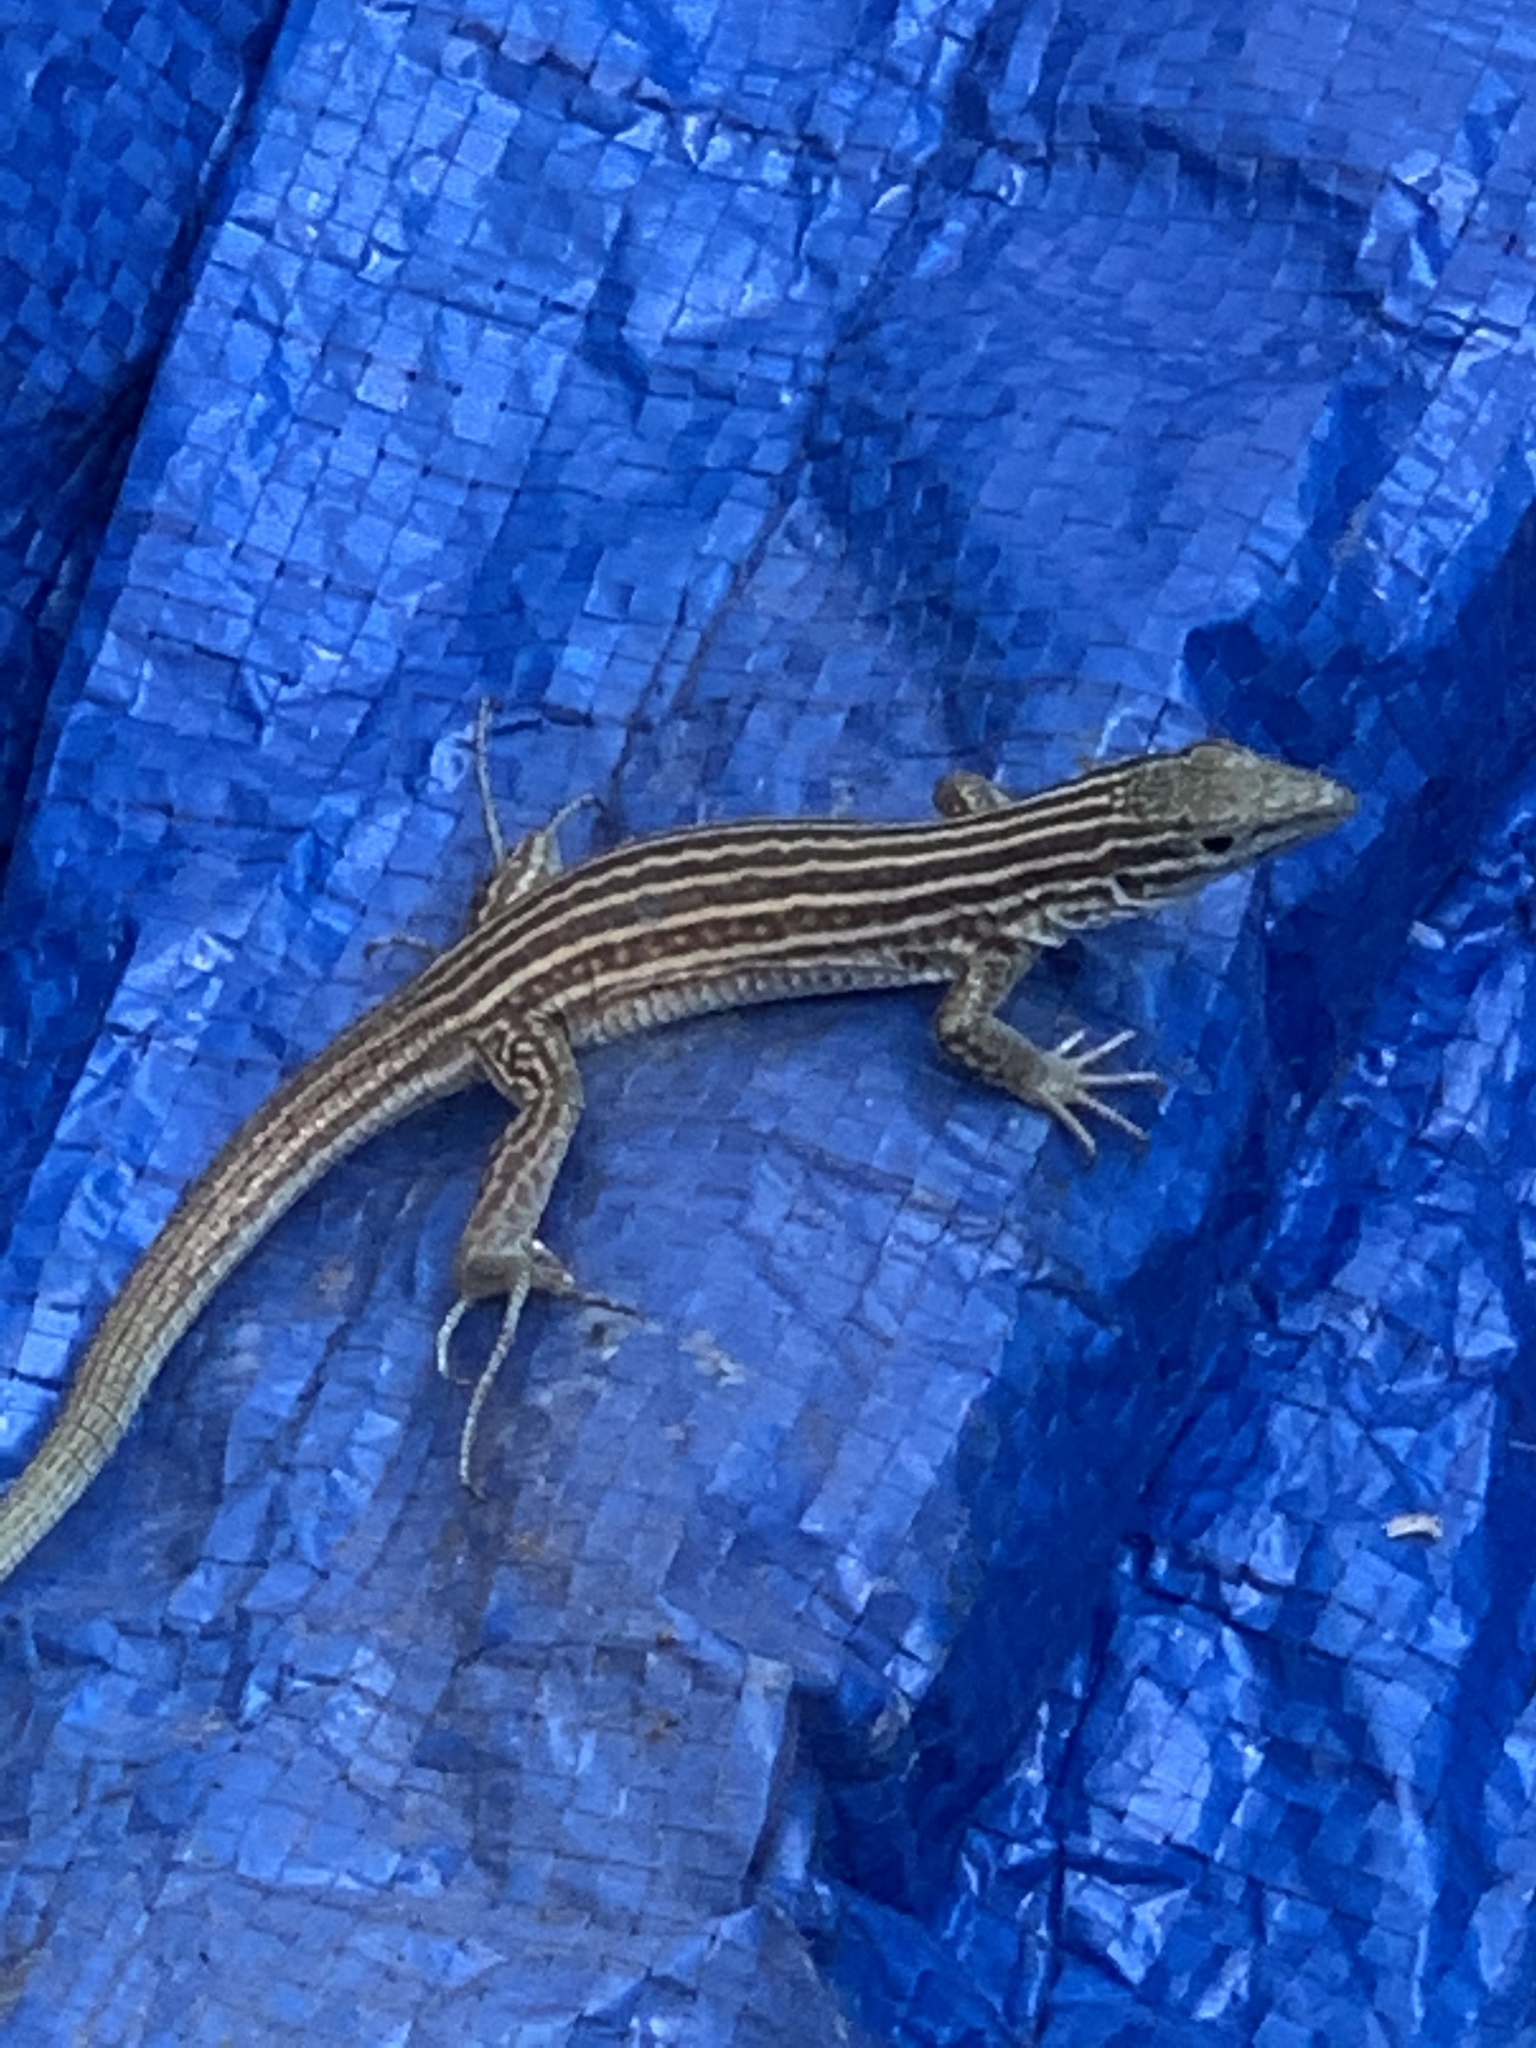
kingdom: Animalia
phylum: Chordata
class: Squamata
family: Teiidae
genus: Aspidoscelis
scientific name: Aspidoscelis inornatus
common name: Little striped whiptail
